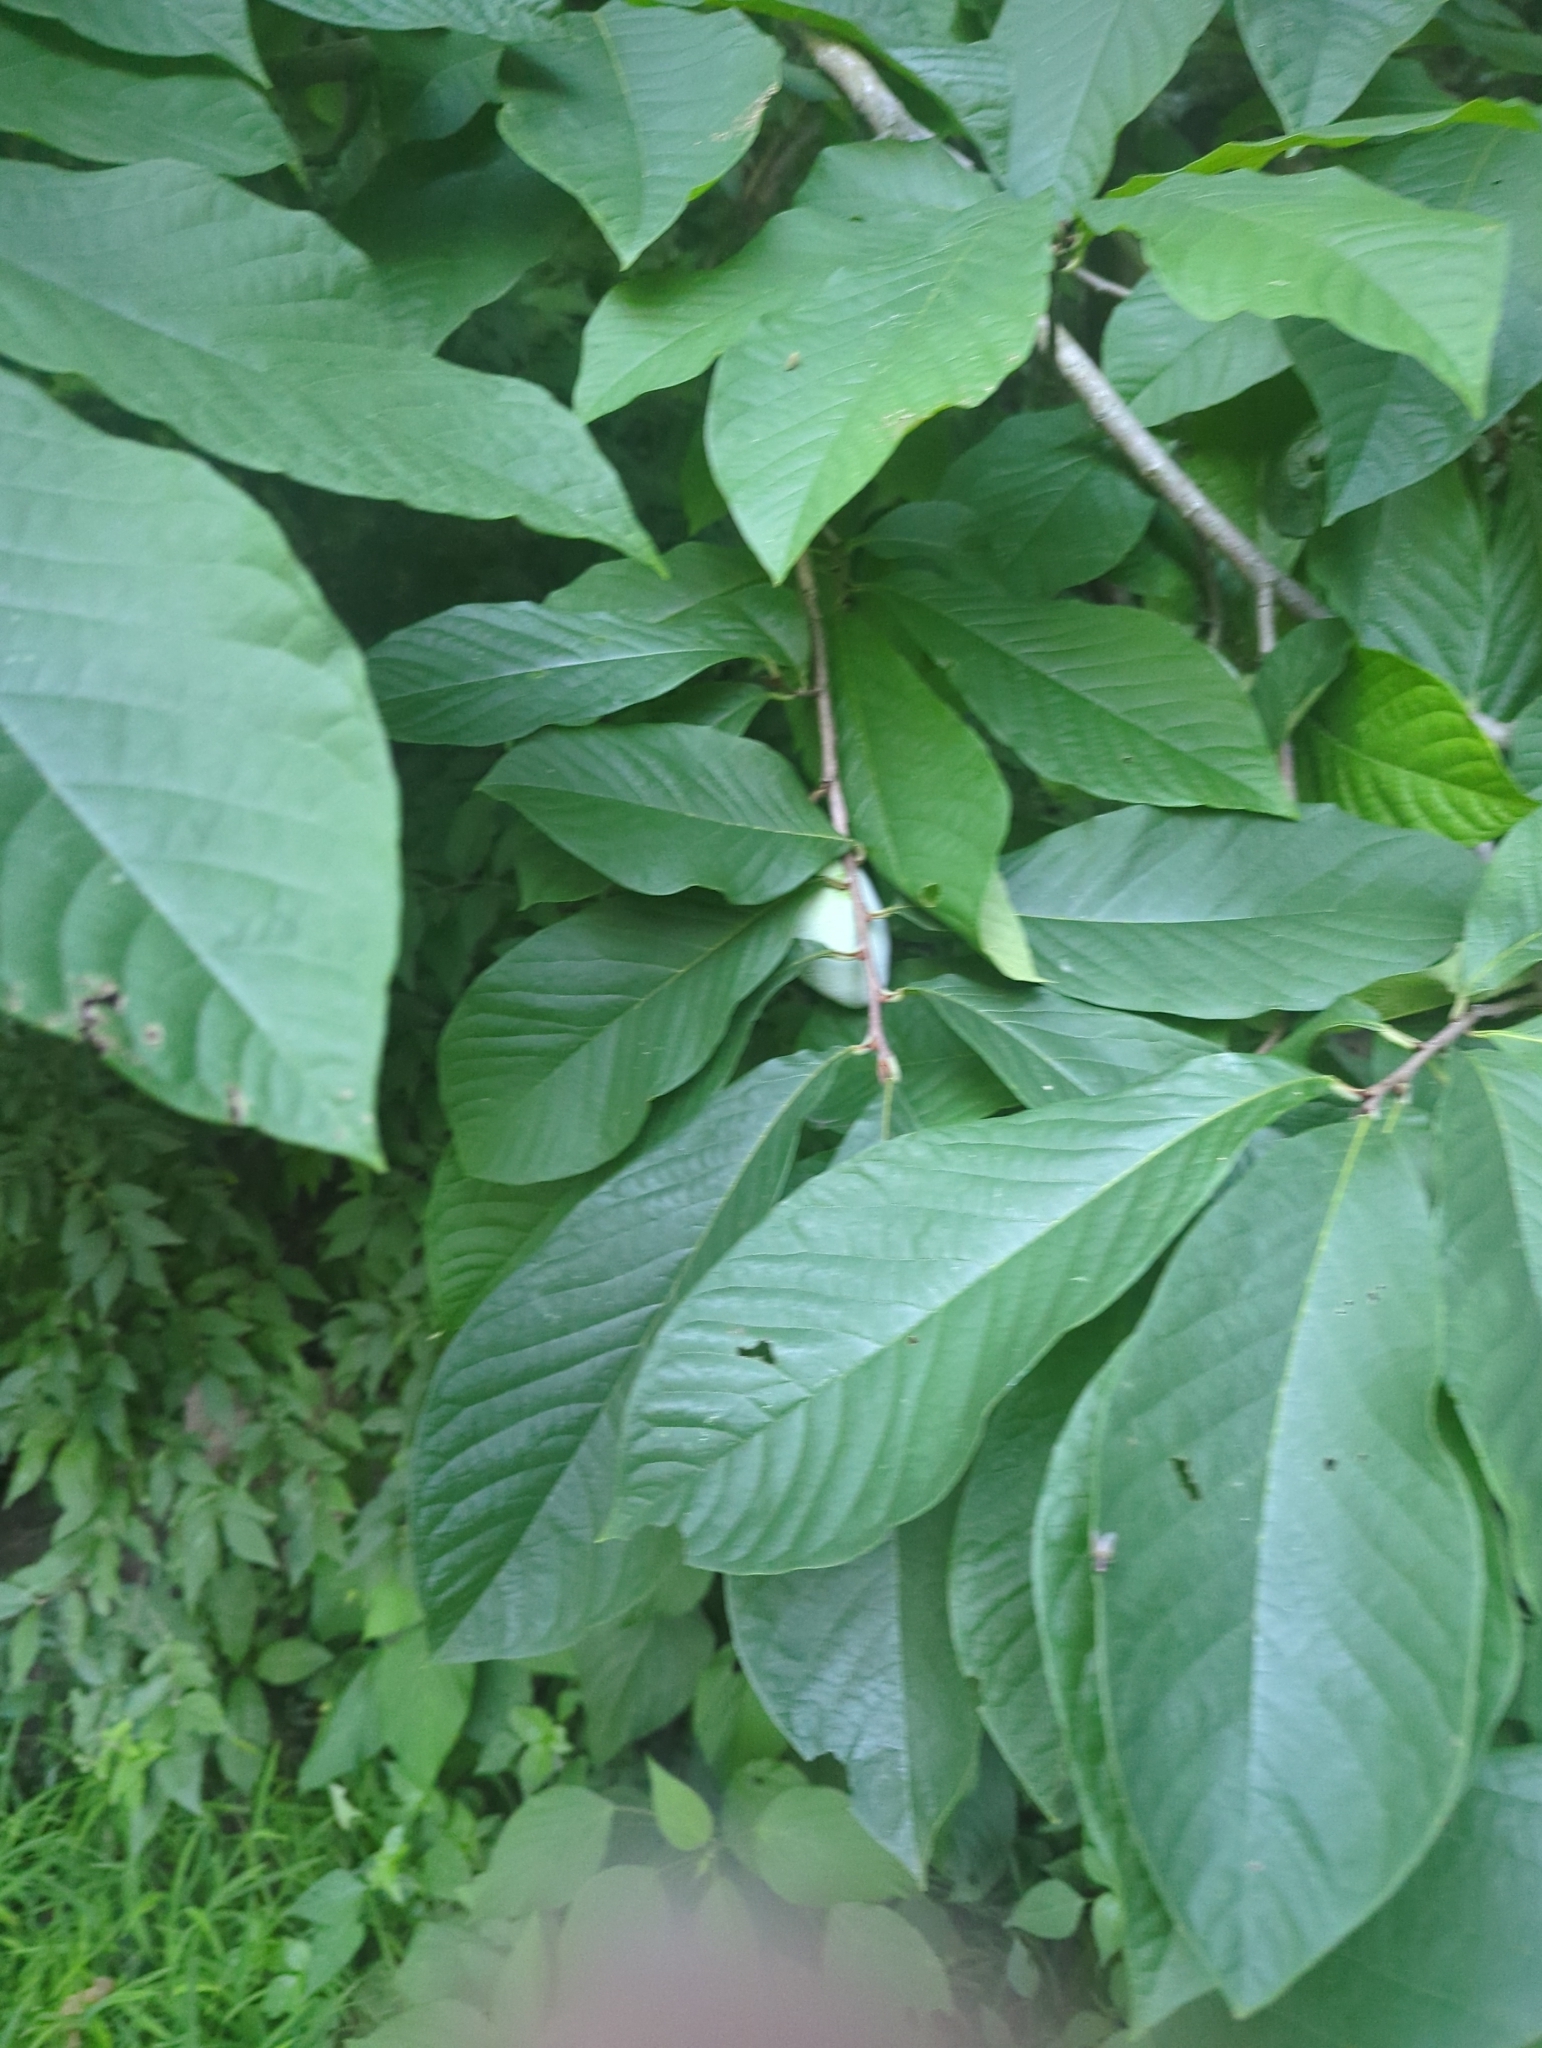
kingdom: Plantae
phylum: Tracheophyta
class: Magnoliopsida
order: Magnoliales
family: Annonaceae
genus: Asimina
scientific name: Asimina triloba
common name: Dog-banana
